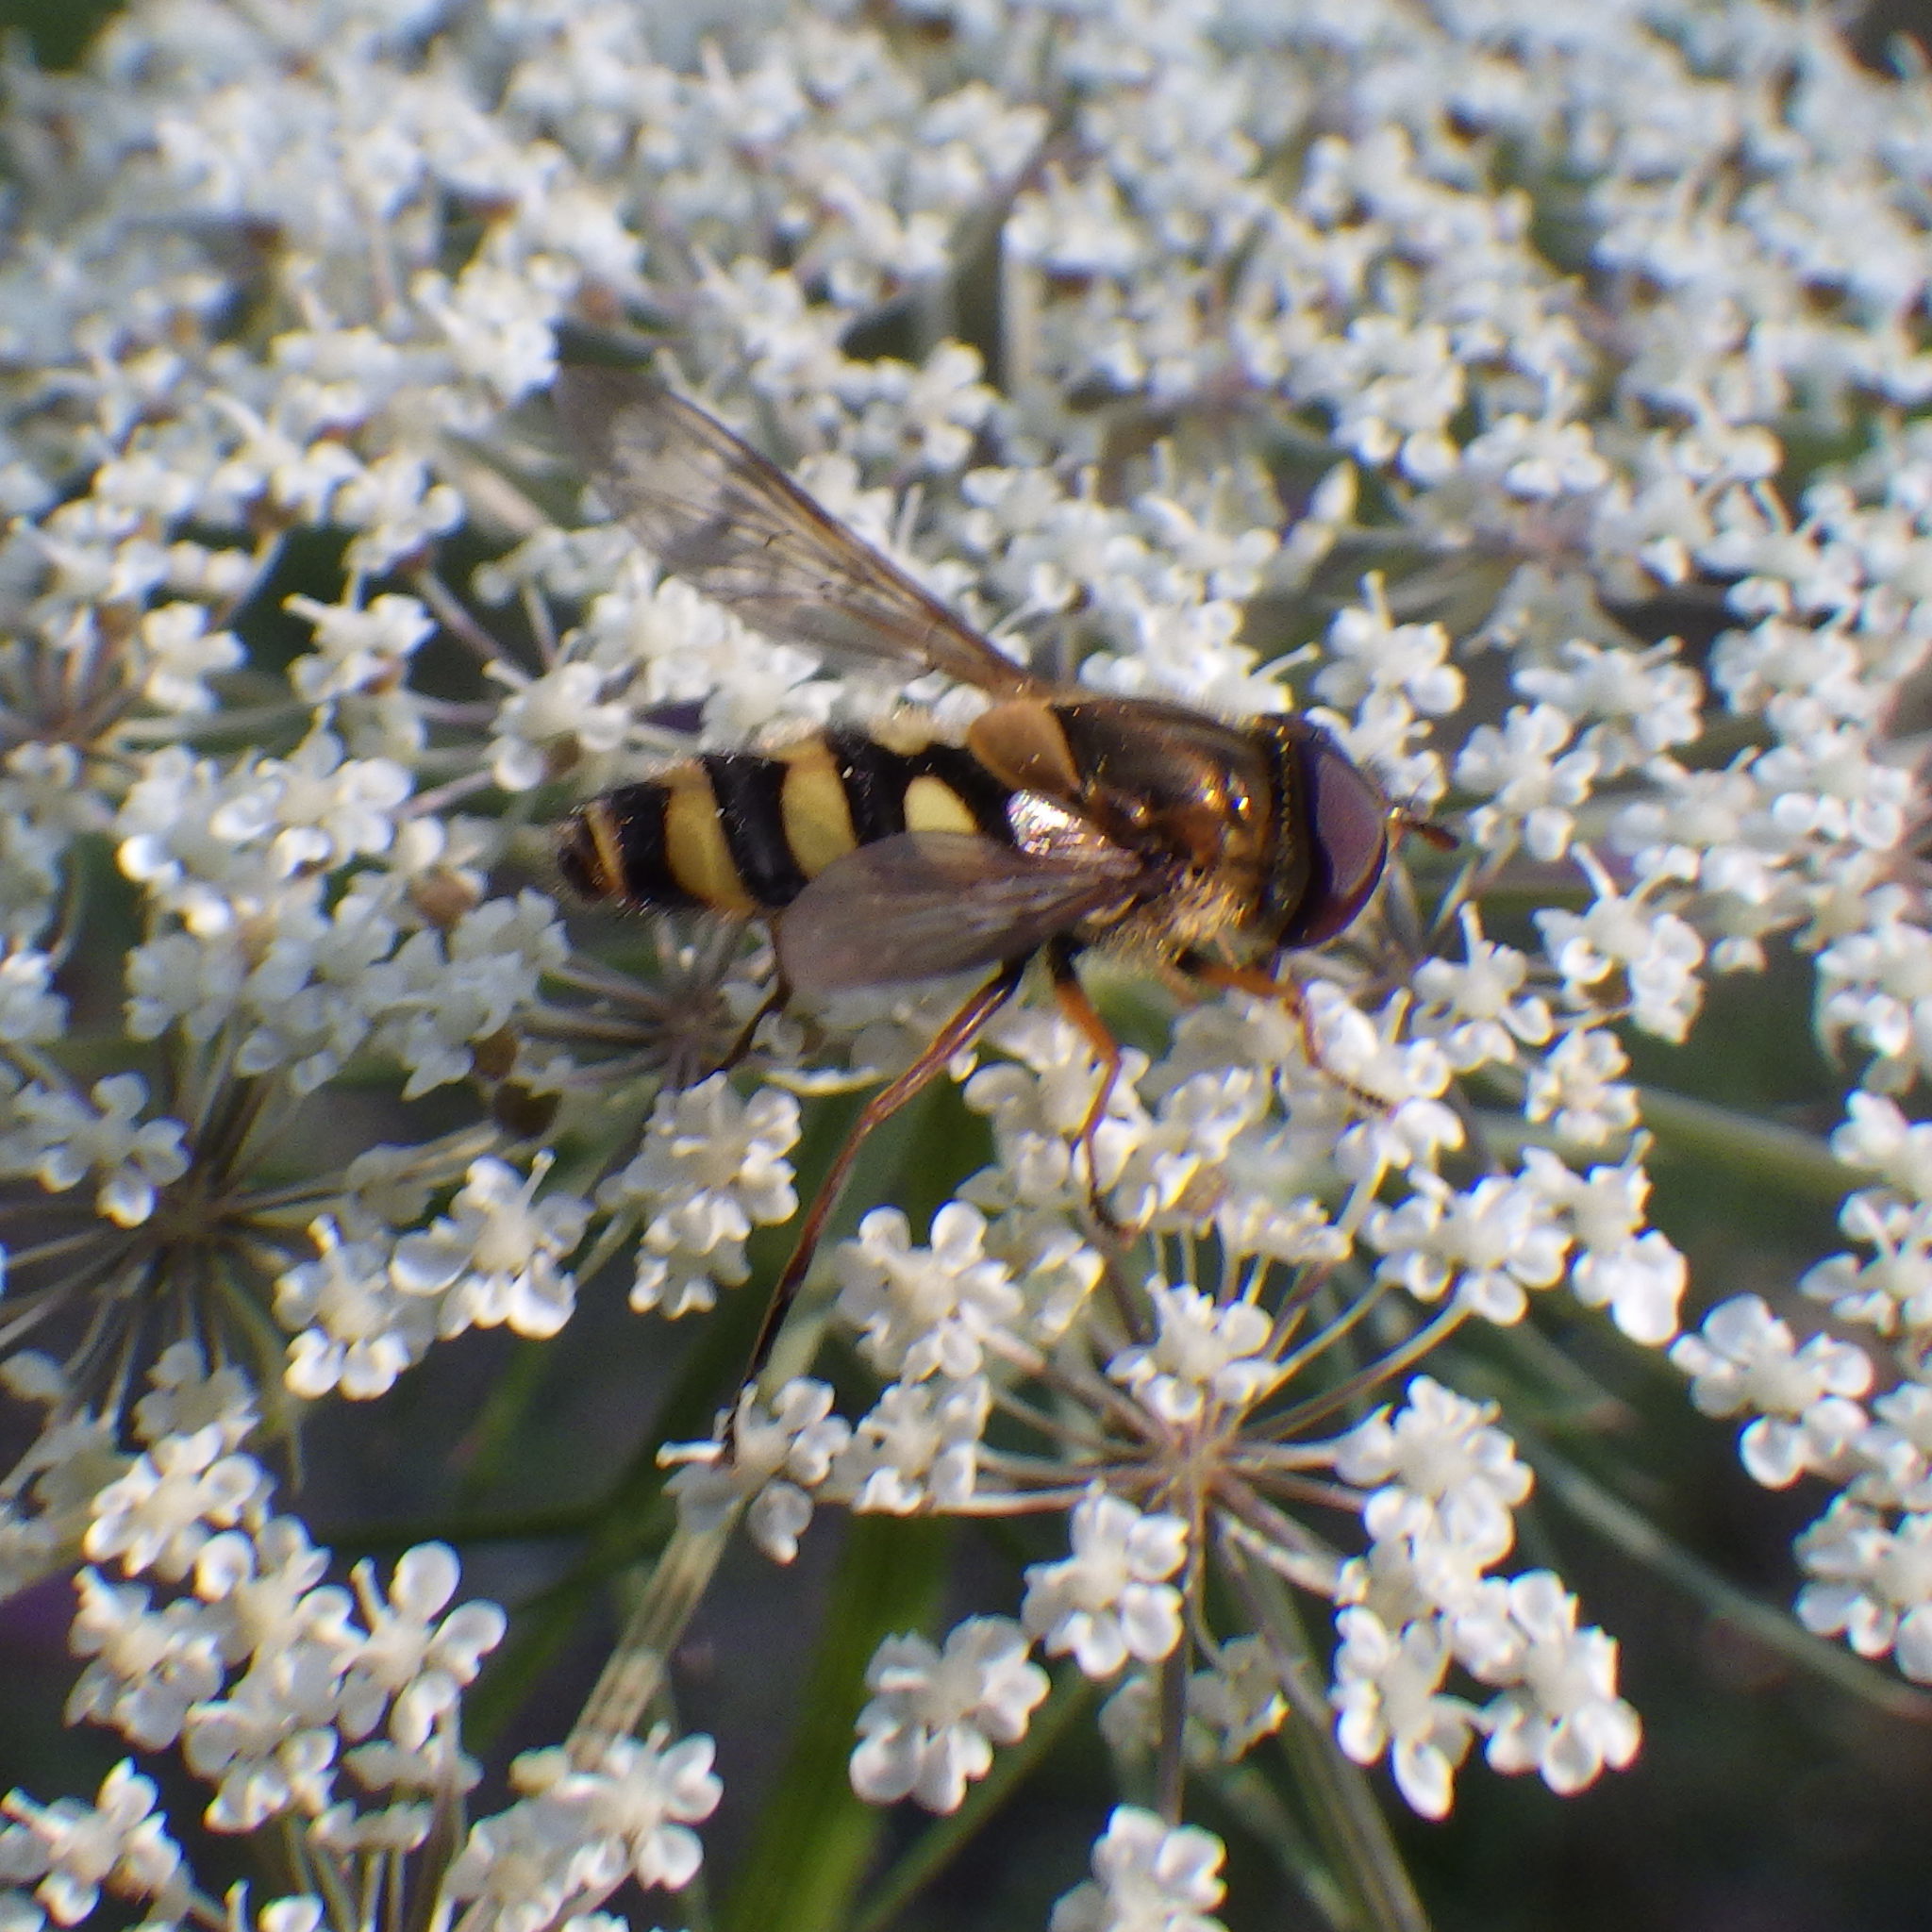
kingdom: Animalia
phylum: Arthropoda
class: Insecta
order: Diptera
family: Syrphidae
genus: Epistrophe
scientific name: Epistrophe xanthostoma
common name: Emarginate smoothtail
